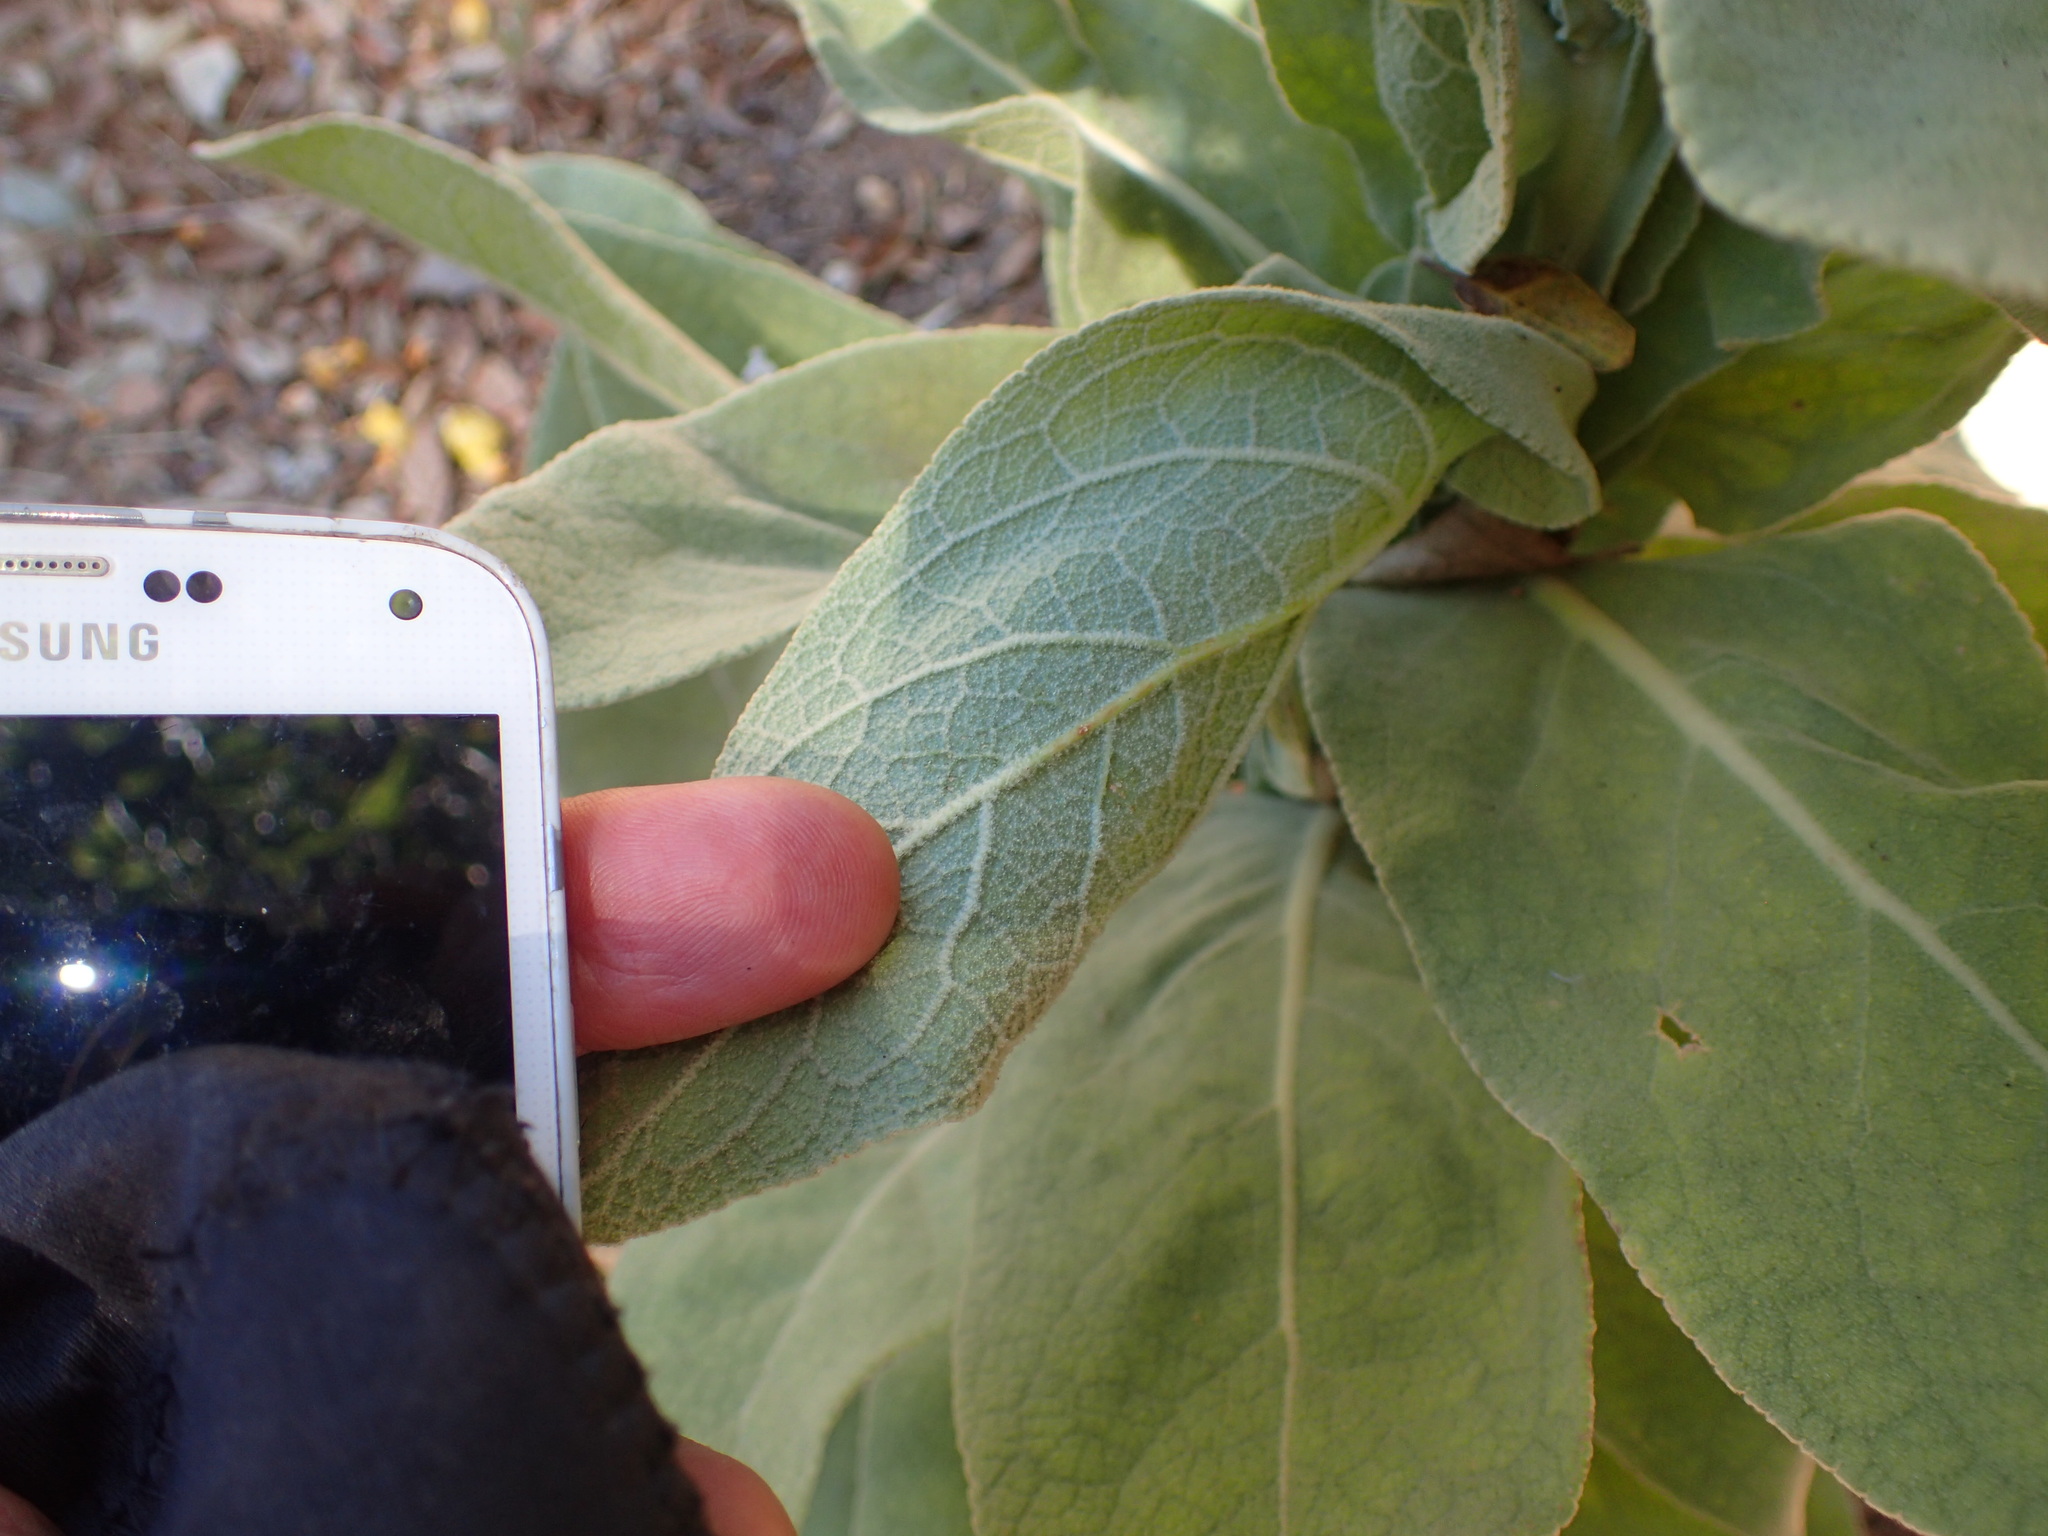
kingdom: Plantae
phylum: Tracheophyta
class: Magnoliopsida
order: Lamiales
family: Scrophulariaceae
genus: Verbascum
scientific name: Verbascum thapsus
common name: Common mullein
